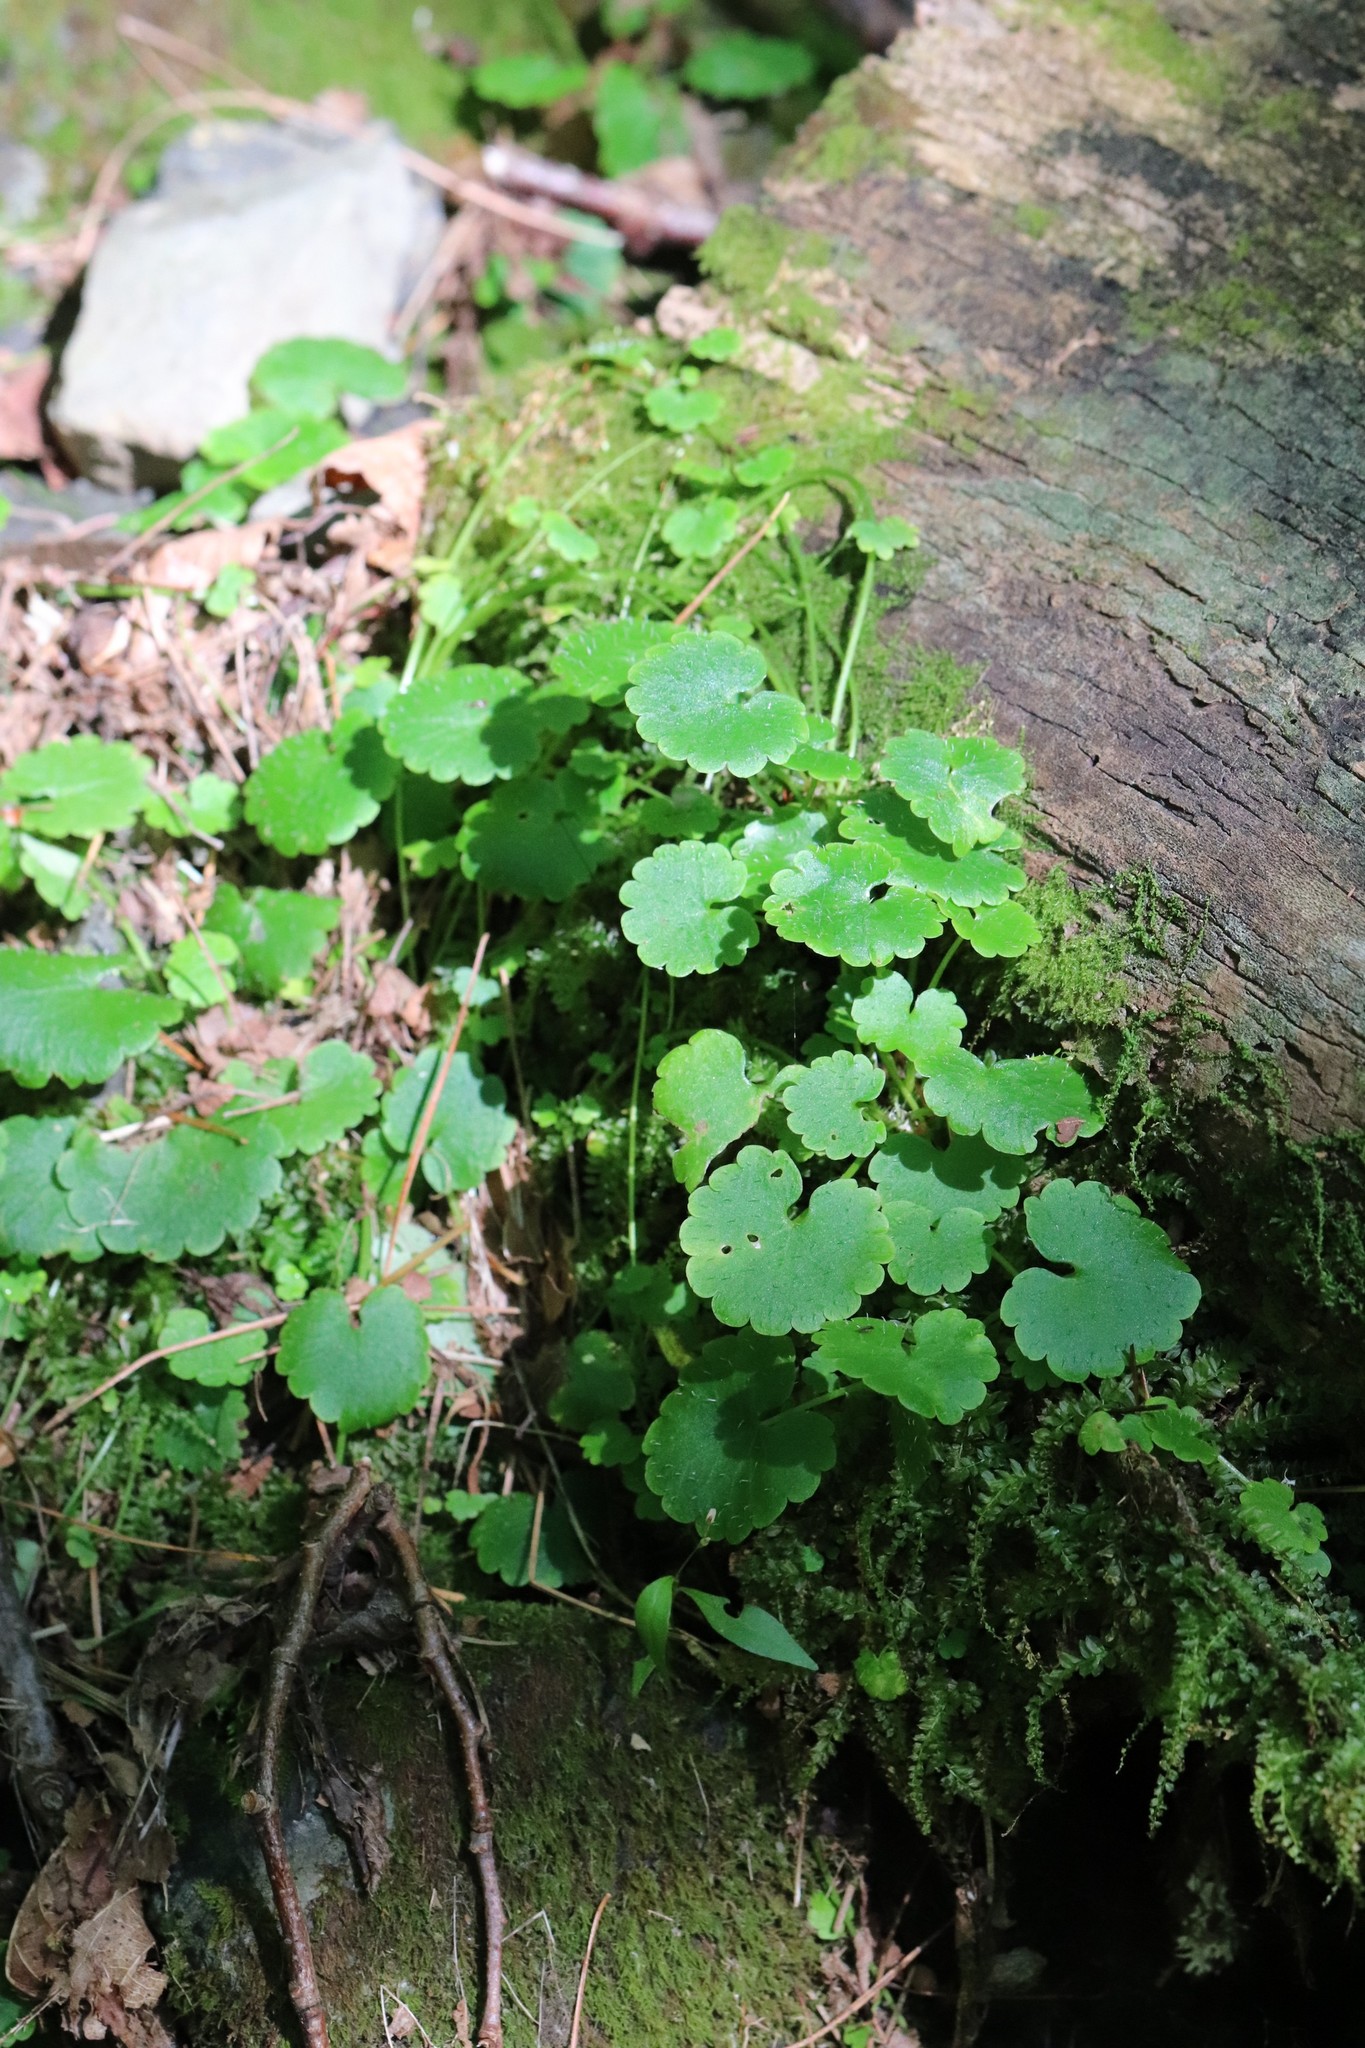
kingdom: Plantae
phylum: Tracheophyta
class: Magnoliopsida
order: Saxifragales
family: Saxifragaceae
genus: Chrysosplenium
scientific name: Chrysosplenium flagelliferum
